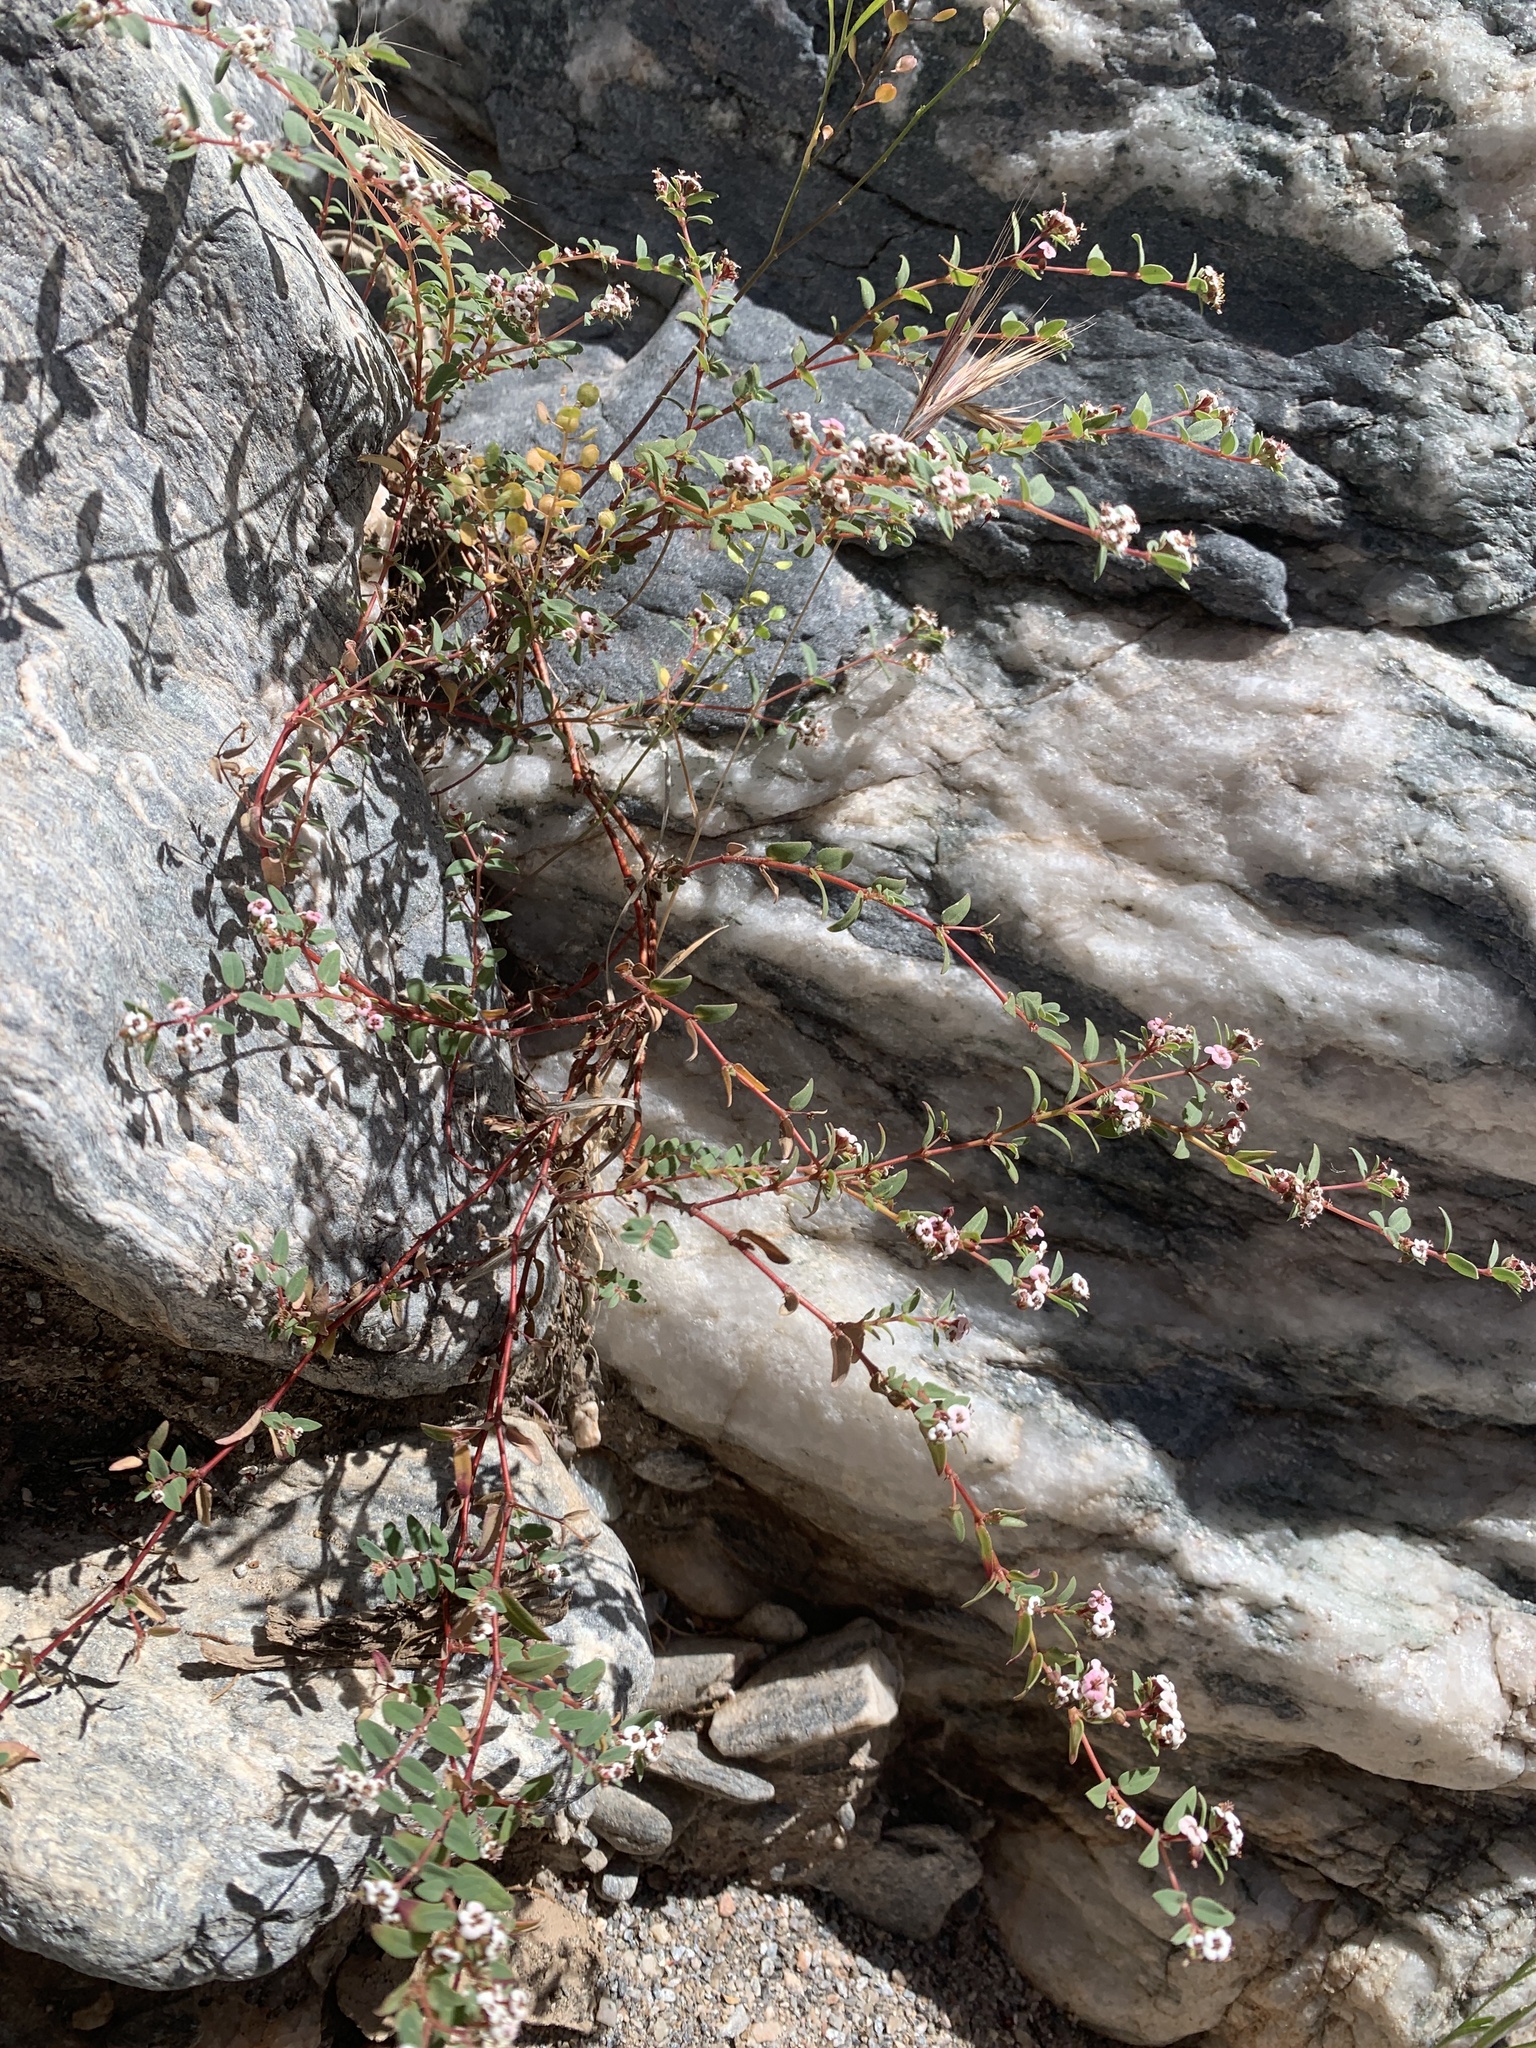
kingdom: Plantae
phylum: Tracheophyta
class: Magnoliopsida
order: Malpighiales
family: Euphorbiaceae
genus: Euphorbia
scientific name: Euphorbia capitellata
